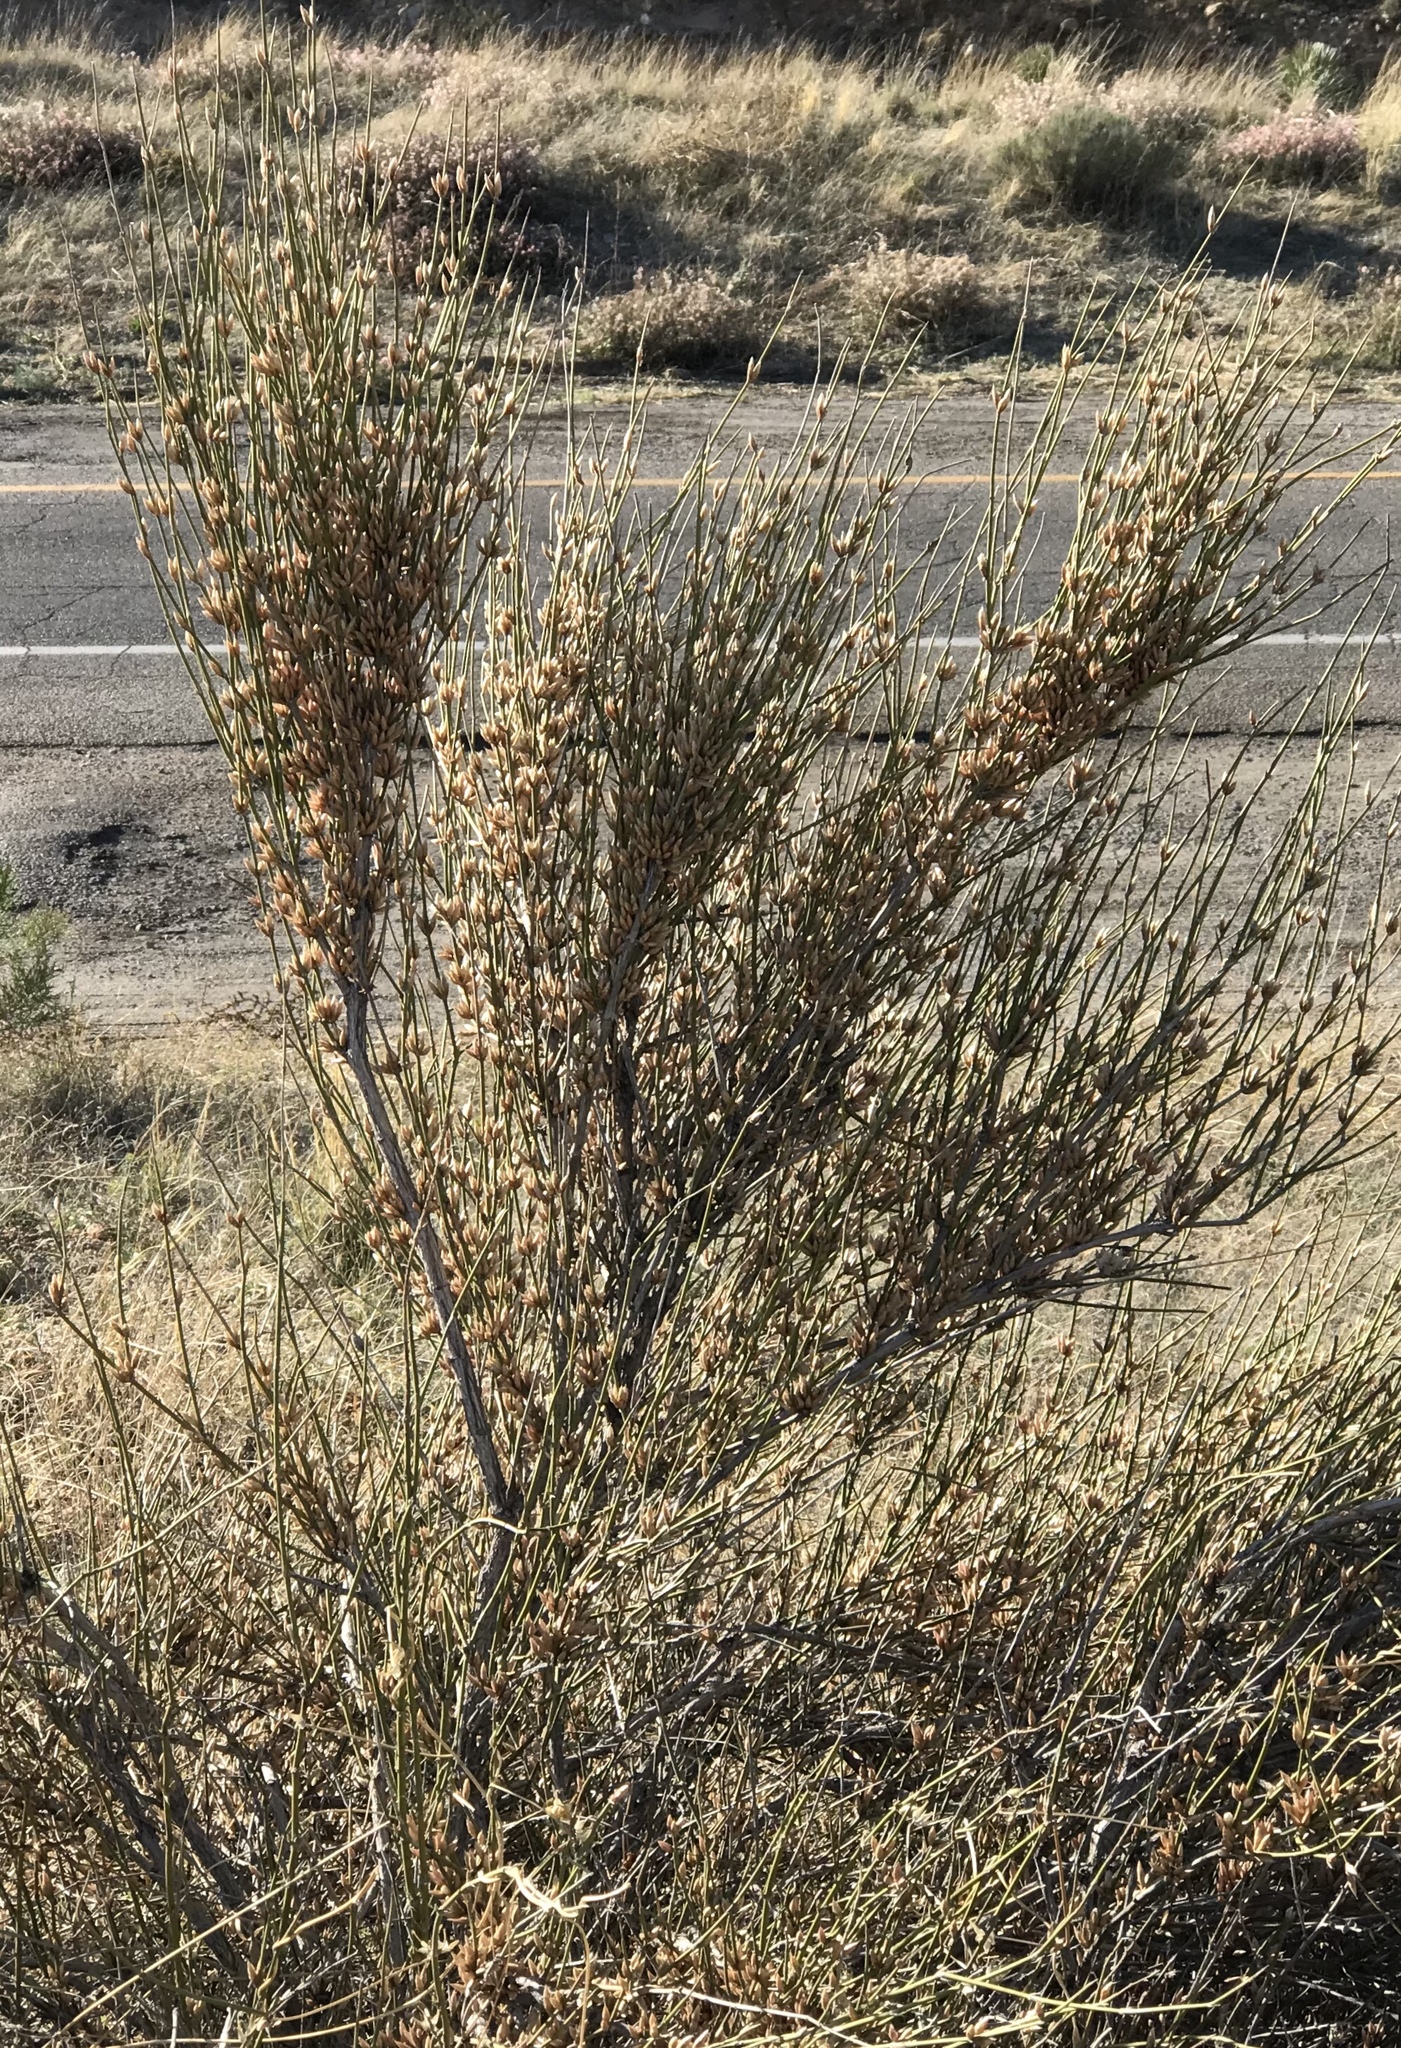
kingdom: Plantae
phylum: Tracheophyta
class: Gnetopsida
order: Ephedrales
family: Ephedraceae
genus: Ephedra
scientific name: Ephedra trifurca
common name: Mexican-tea
